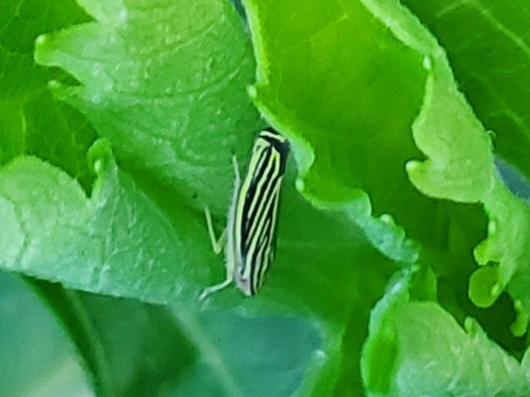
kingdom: Animalia
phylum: Arthropoda
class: Insecta
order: Hemiptera
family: Cicadellidae
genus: Sibovia
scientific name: Sibovia occatoria
